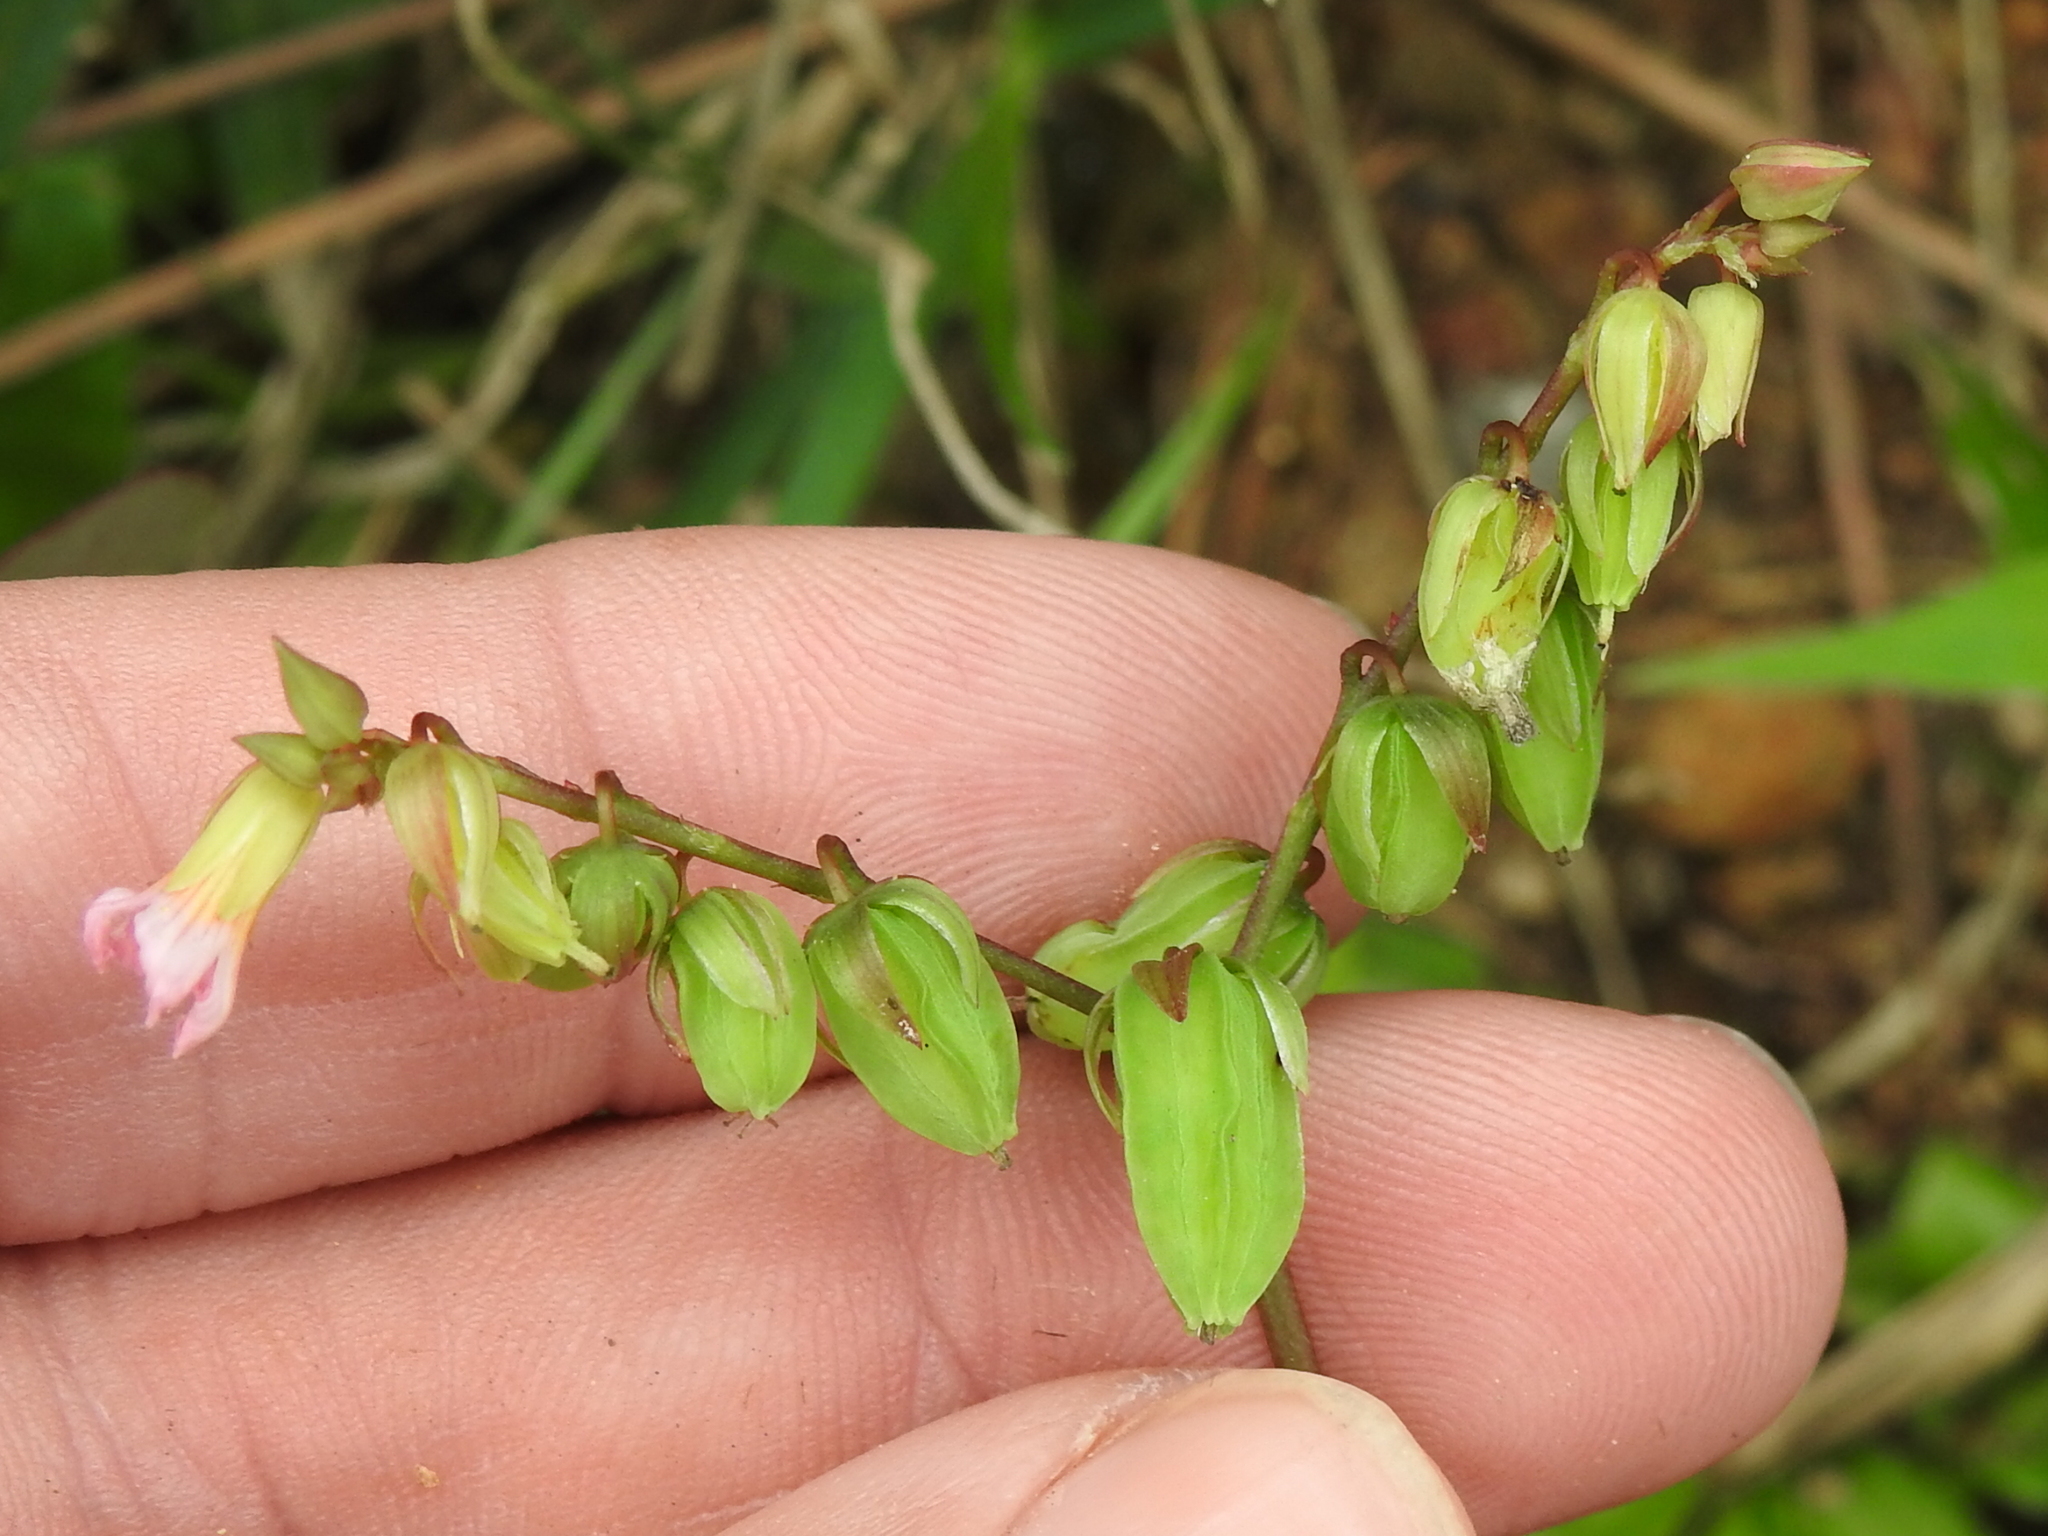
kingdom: Plantae
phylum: Tracheophyta
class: Magnoliopsida
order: Oxalidales
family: Oxalidaceae
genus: Oxalis
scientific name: Oxalis barrelieri
